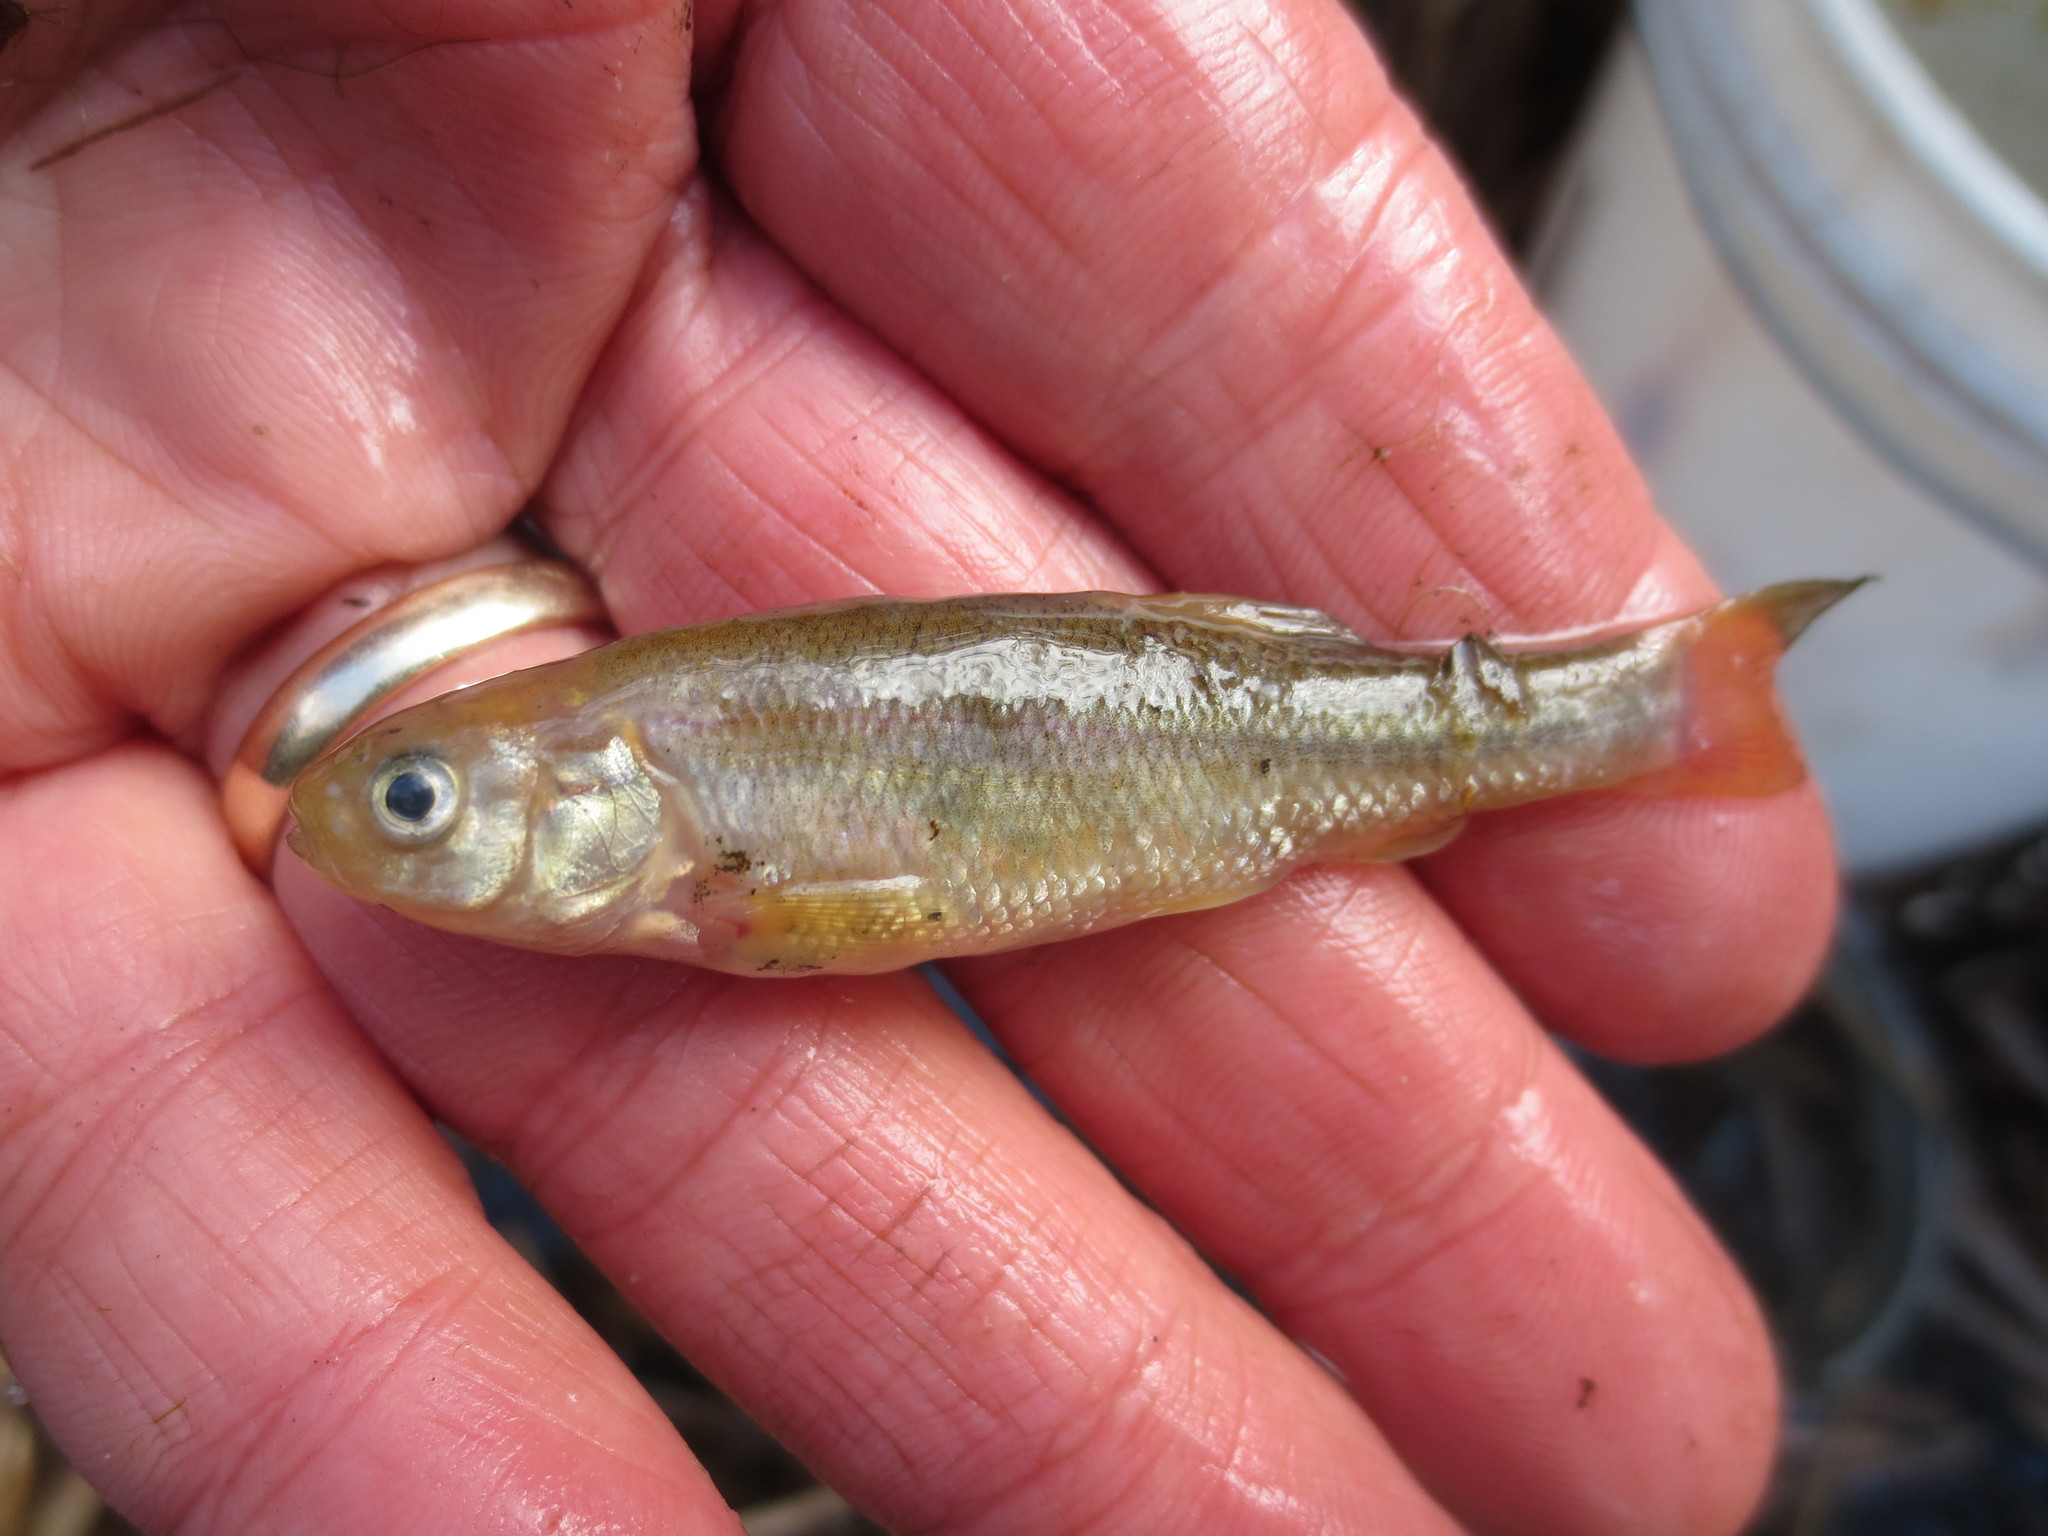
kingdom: Animalia
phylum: Chordata
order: Cypriniformes
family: Cyprinidae
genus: Pimephales
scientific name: Pimephales promelas
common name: Fathead minnow
